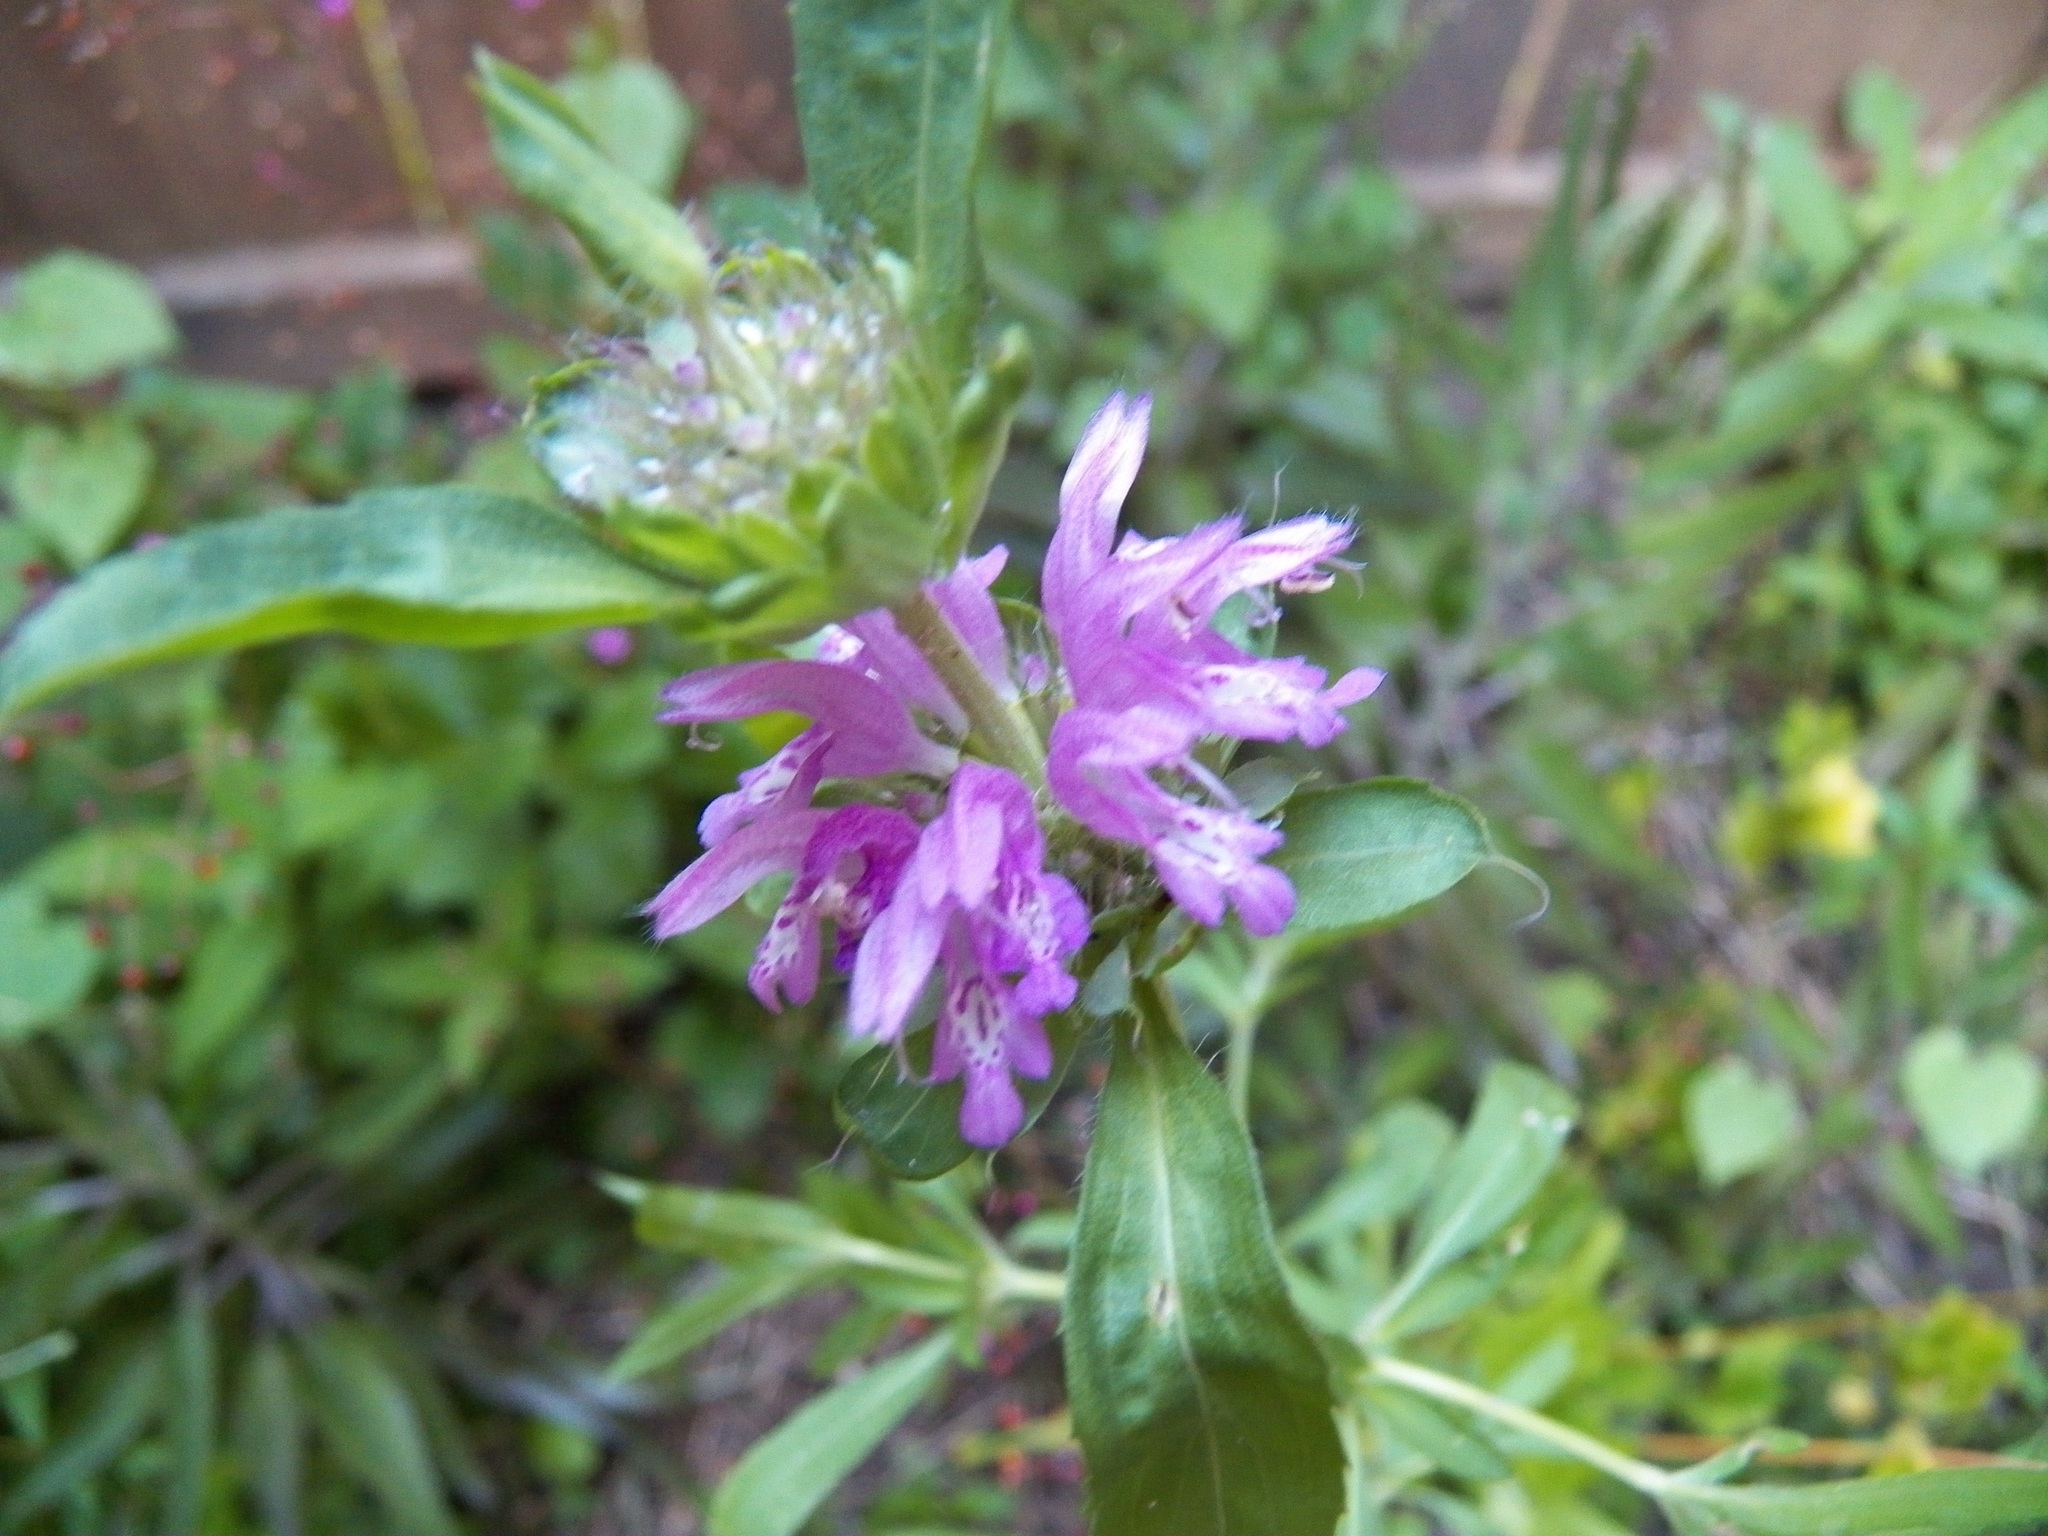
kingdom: Plantae
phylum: Tracheophyta
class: Magnoliopsida
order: Lamiales
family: Lamiaceae
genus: Monarda
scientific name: Monarda citriodora
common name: Lemon beebalm
